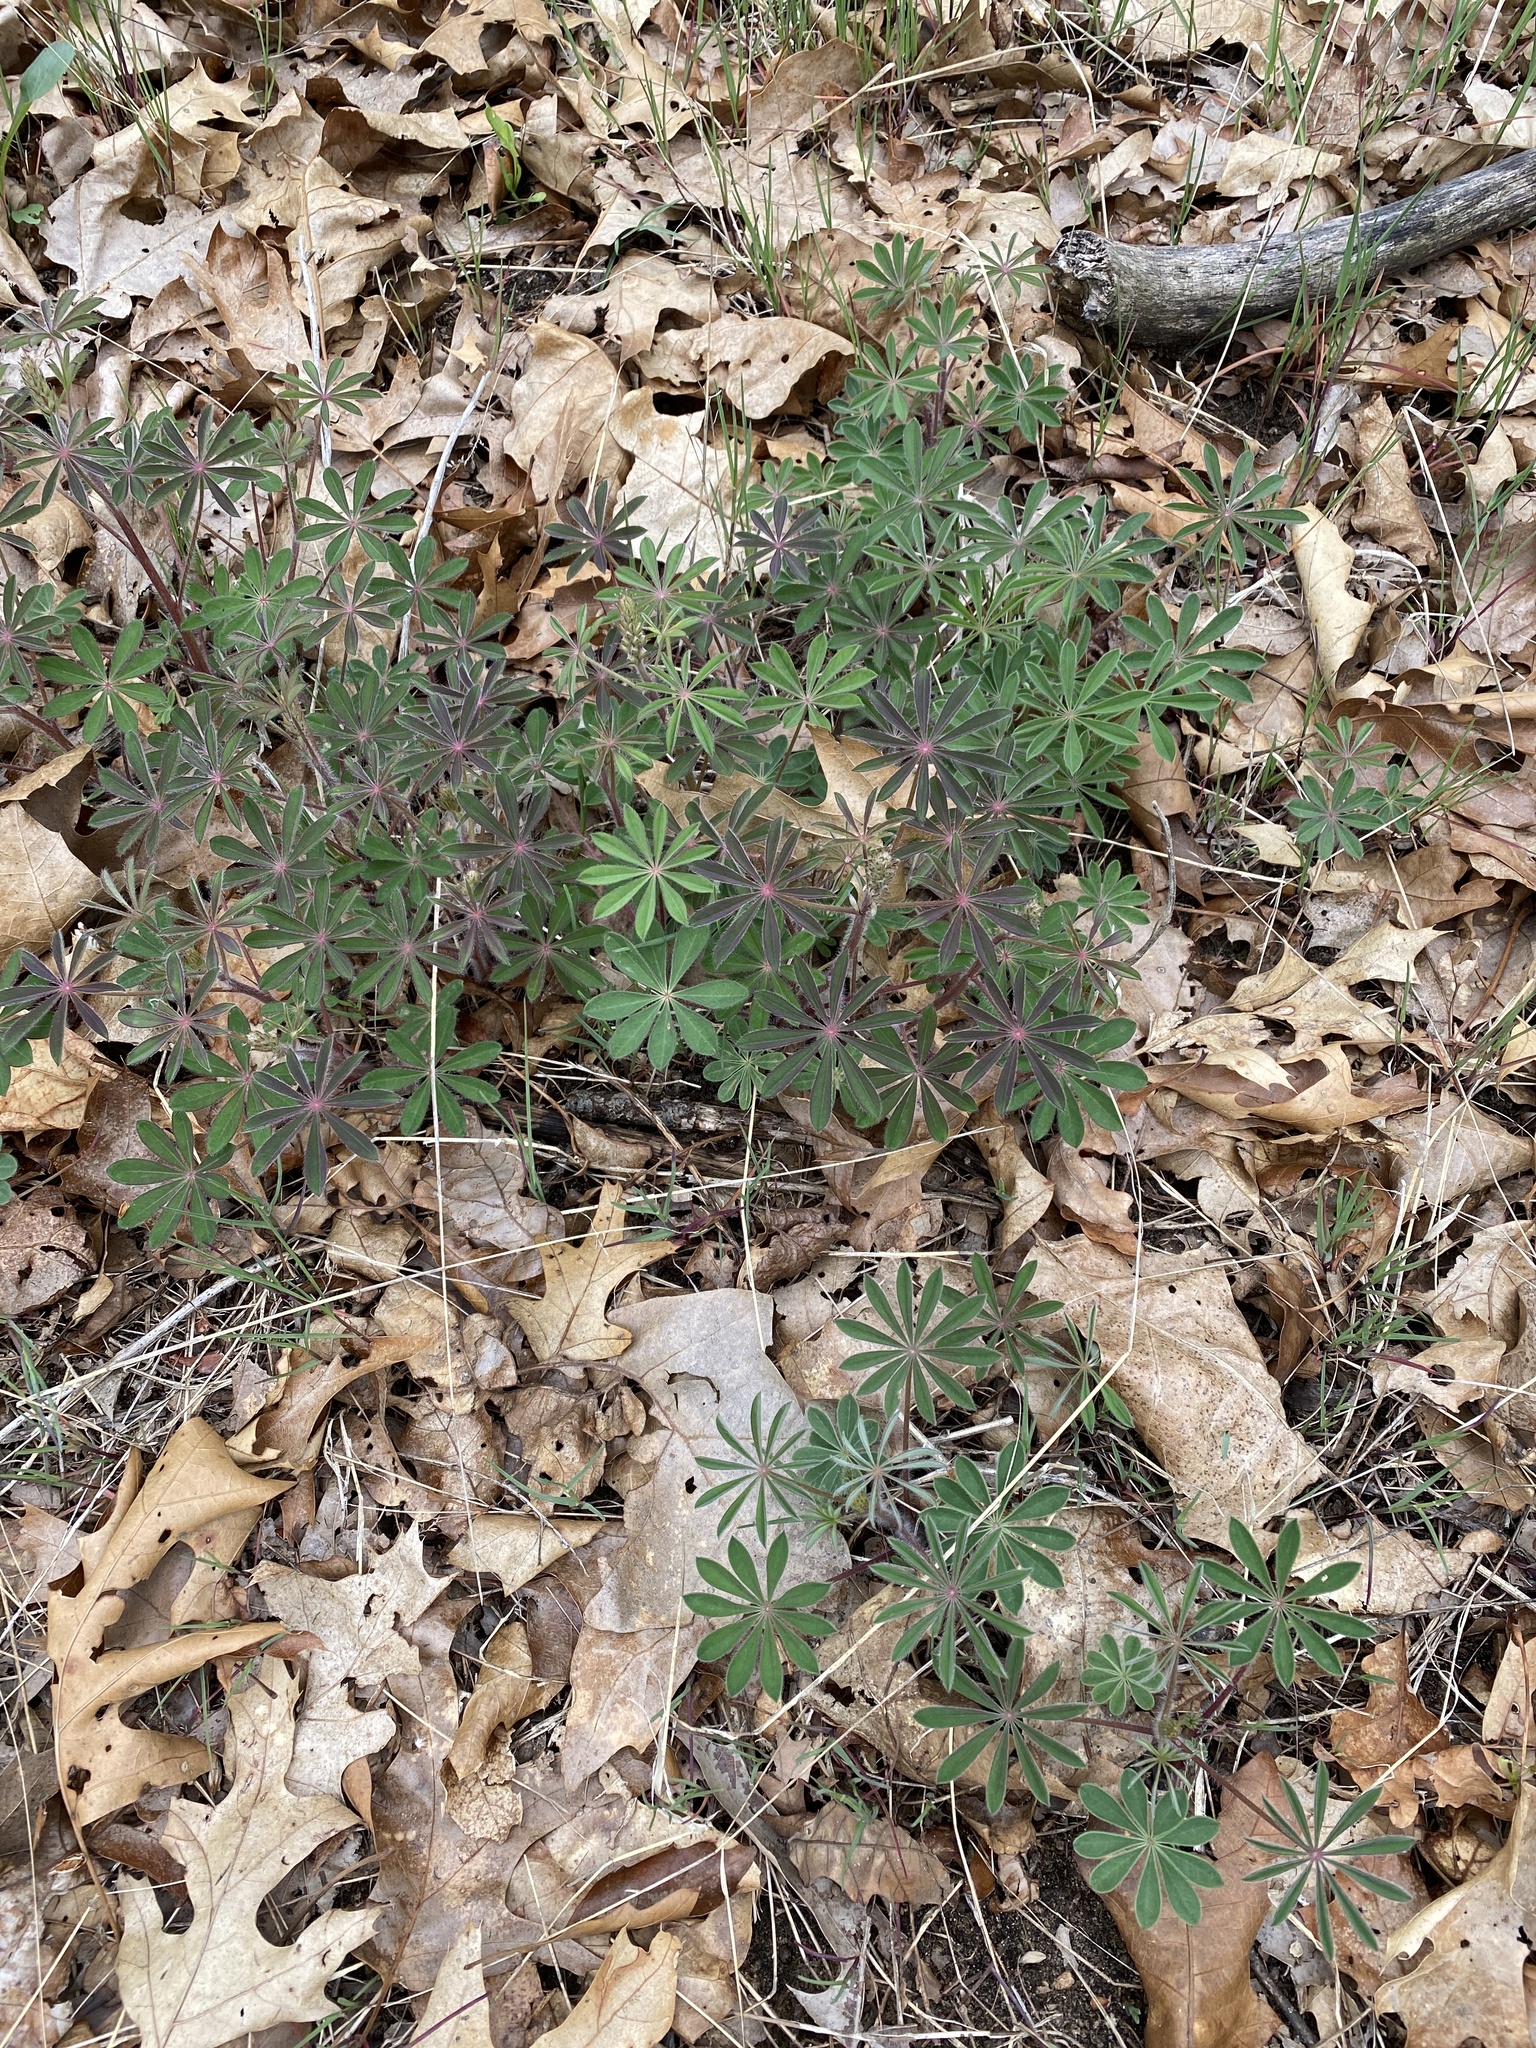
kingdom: Plantae
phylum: Tracheophyta
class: Magnoliopsida
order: Fabales
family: Fabaceae
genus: Lupinus
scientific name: Lupinus perennis
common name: Sundial lupine
